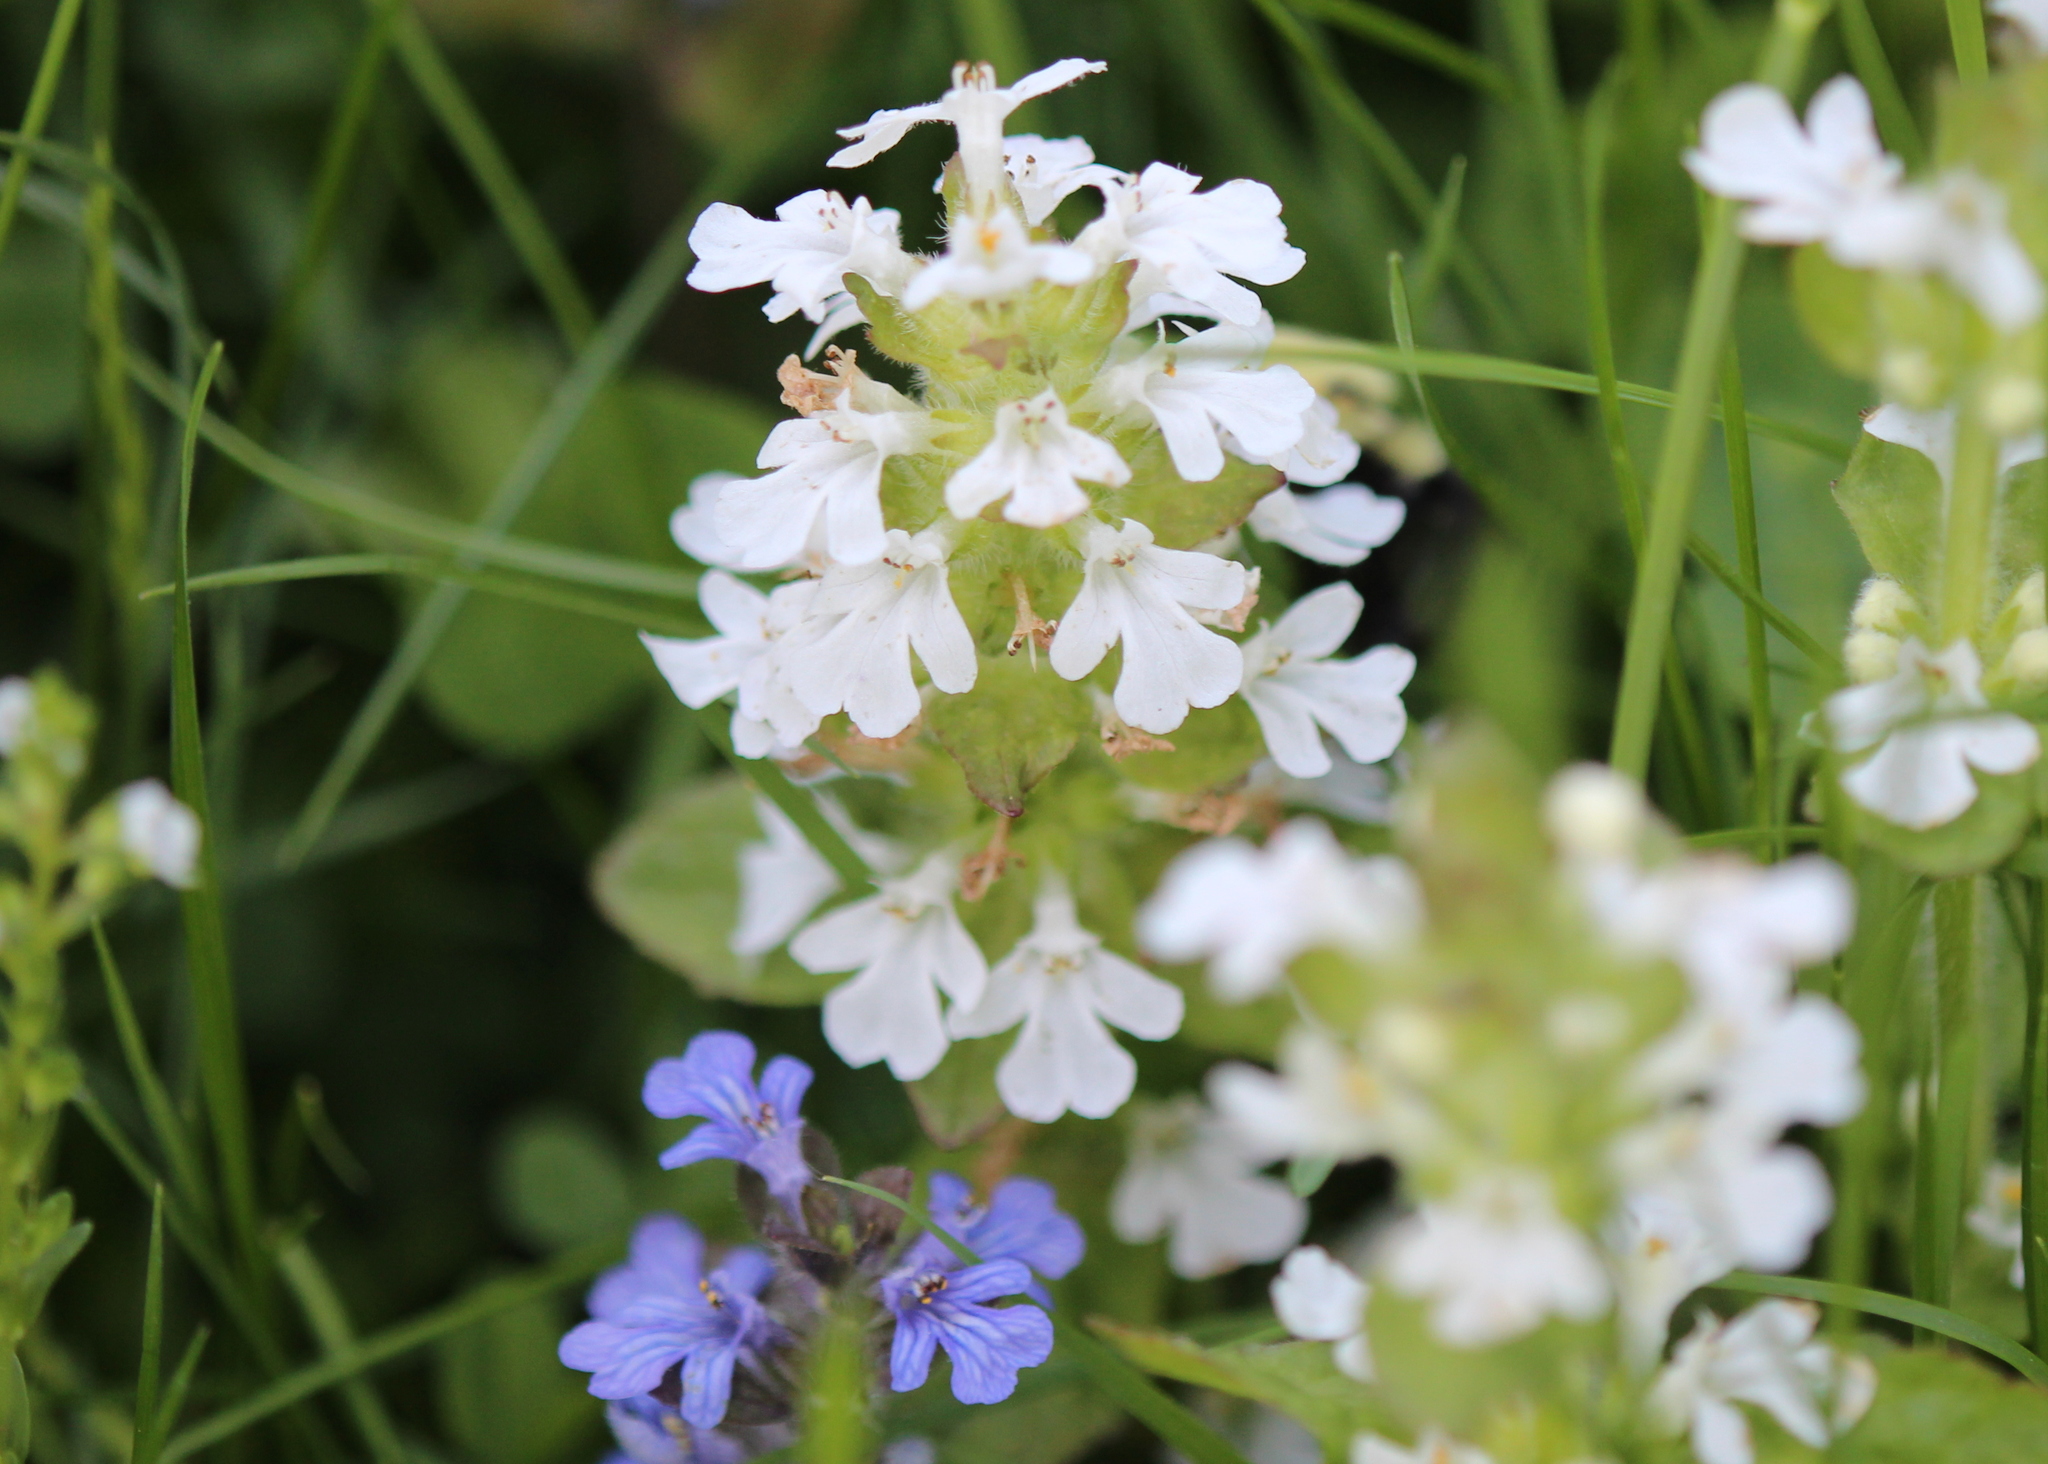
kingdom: Plantae
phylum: Tracheophyta
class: Magnoliopsida
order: Lamiales
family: Lamiaceae
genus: Ajuga
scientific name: Ajuga reptans
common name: Bugle
